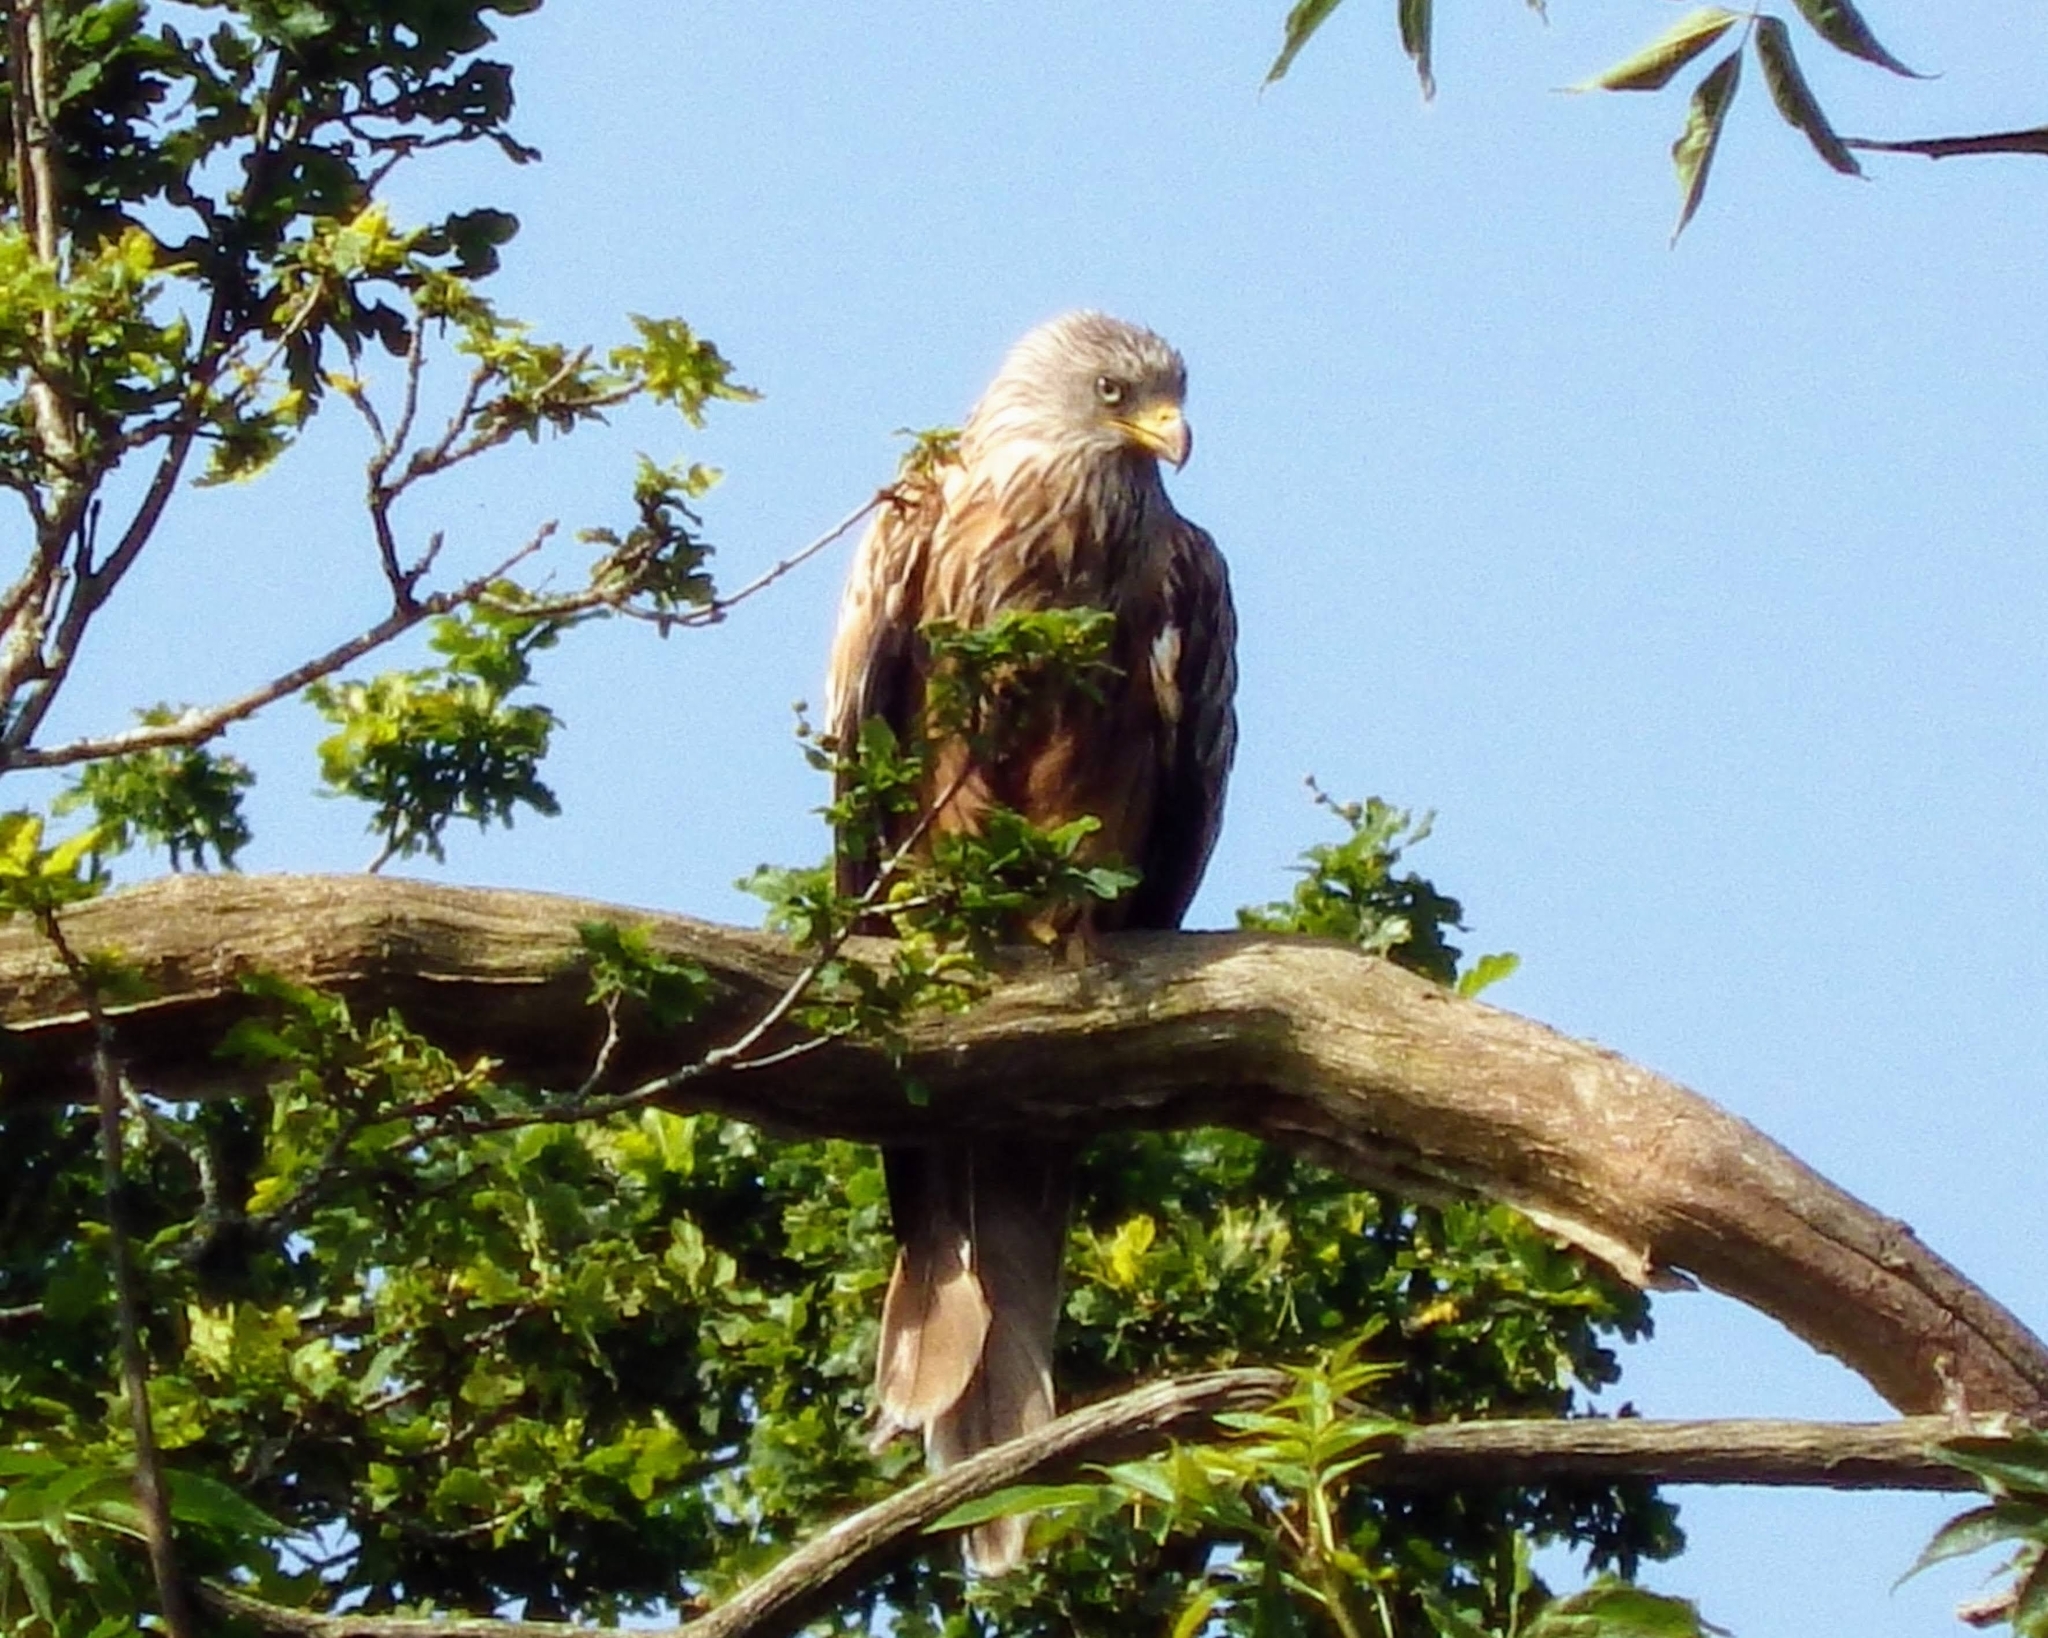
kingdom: Animalia
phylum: Chordata
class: Aves
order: Accipitriformes
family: Accipitridae
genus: Milvus
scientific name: Milvus milvus
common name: Red kite
